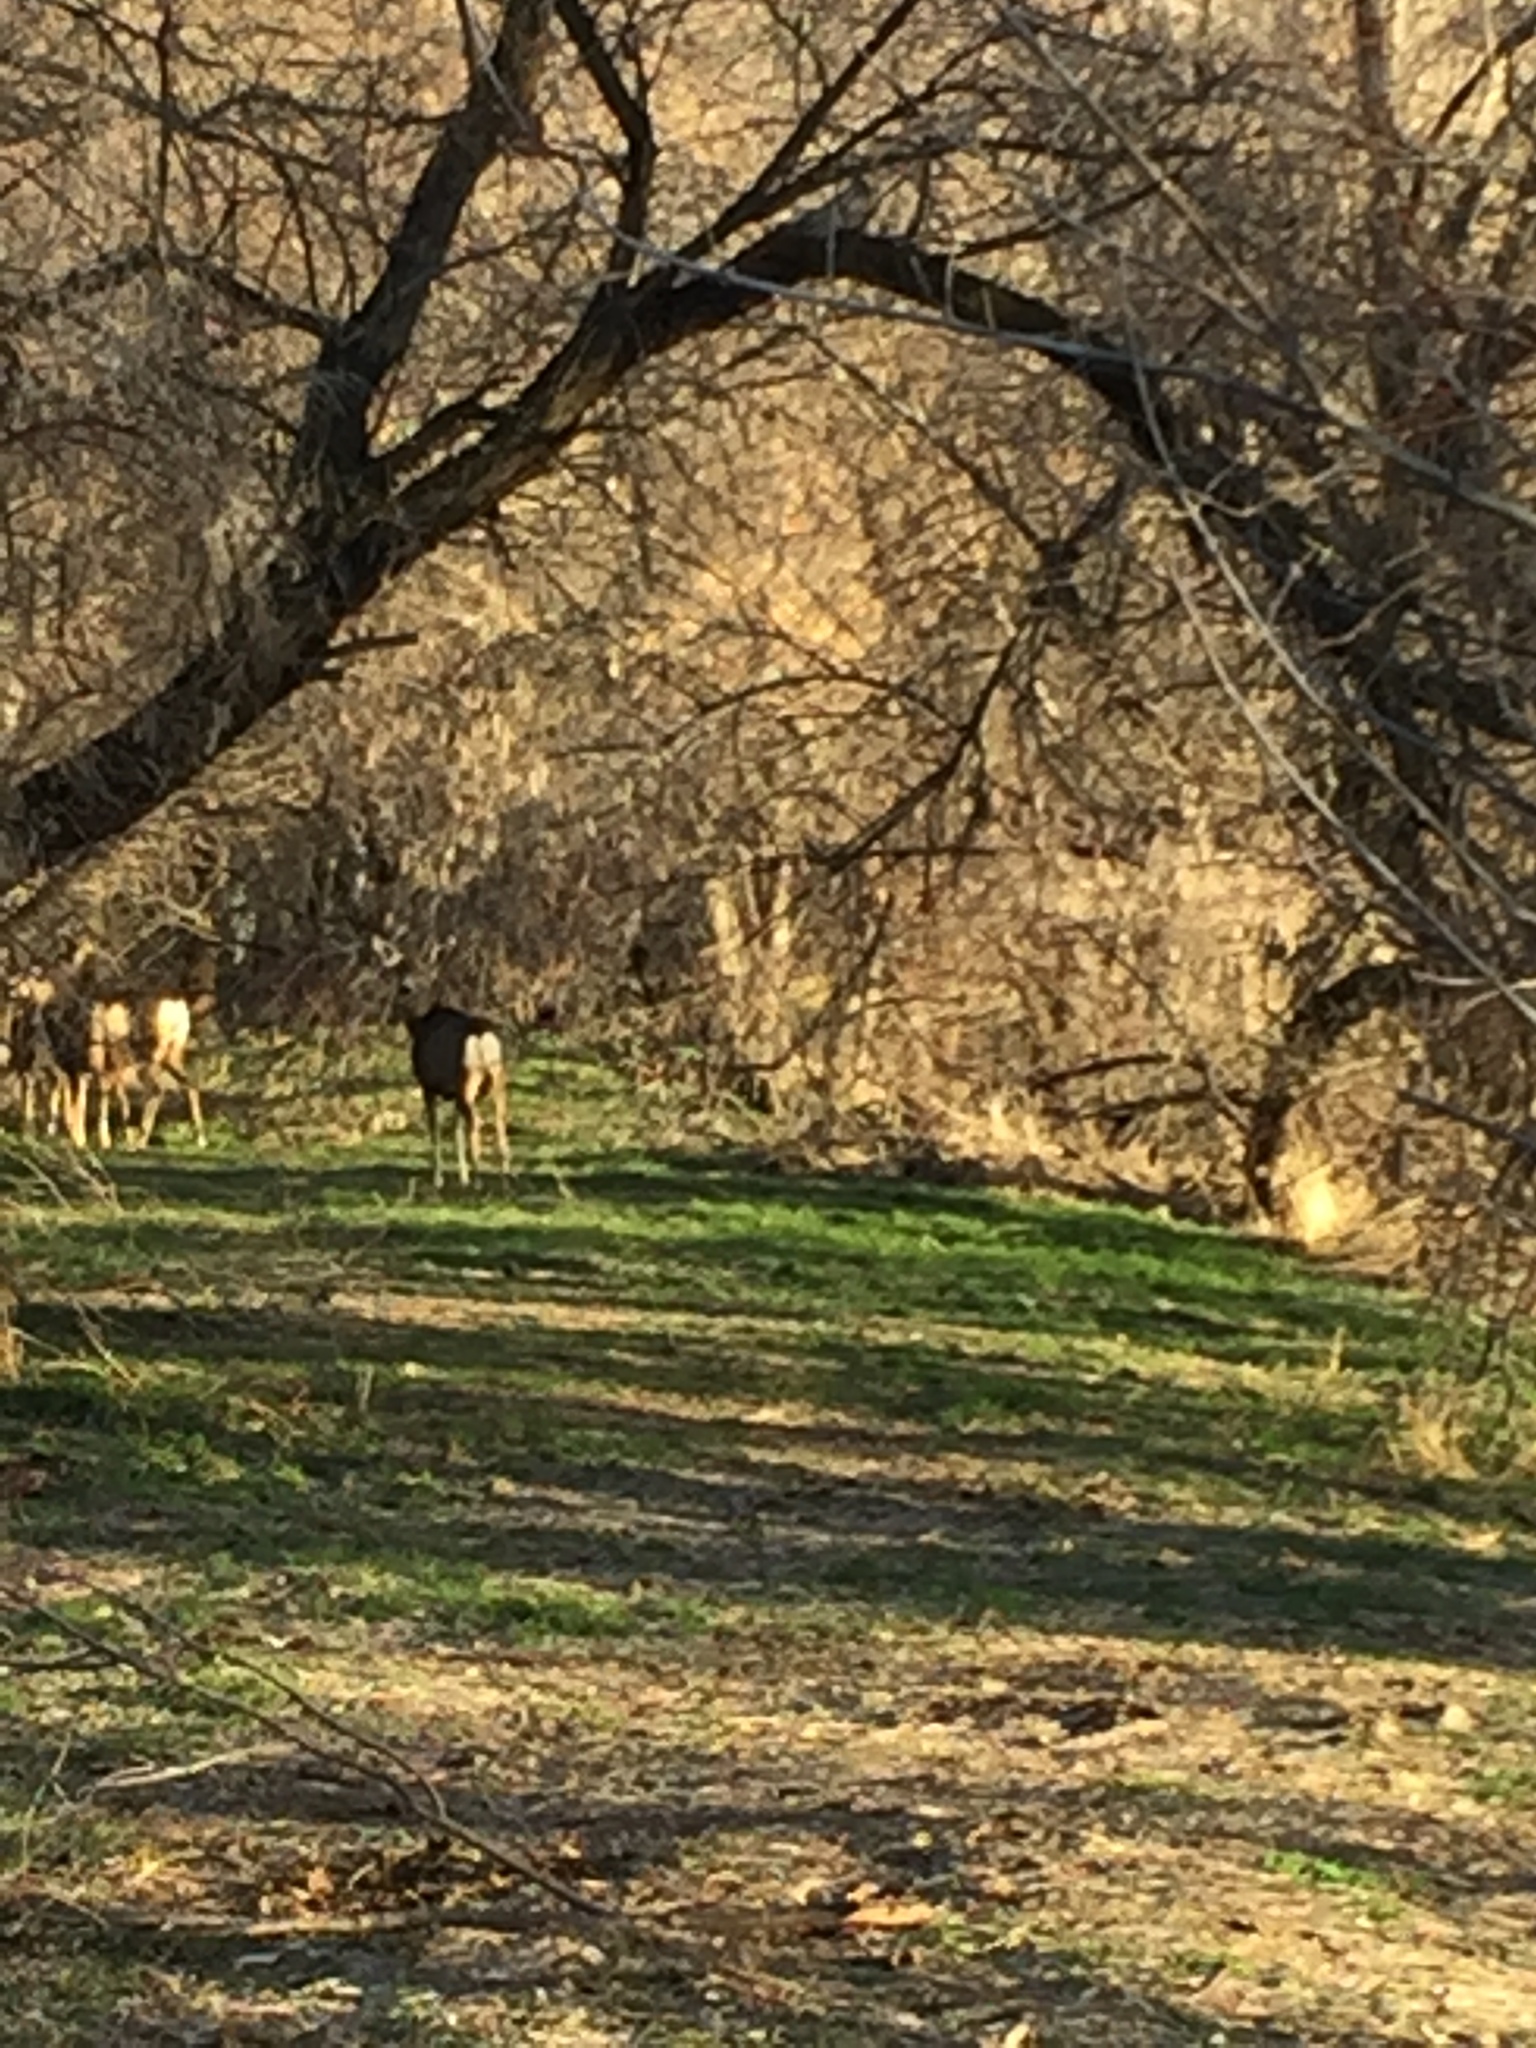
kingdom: Animalia
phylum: Chordata
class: Mammalia
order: Artiodactyla
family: Cervidae
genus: Odocoileus
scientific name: Odocoileus hemionus
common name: Mule deer
